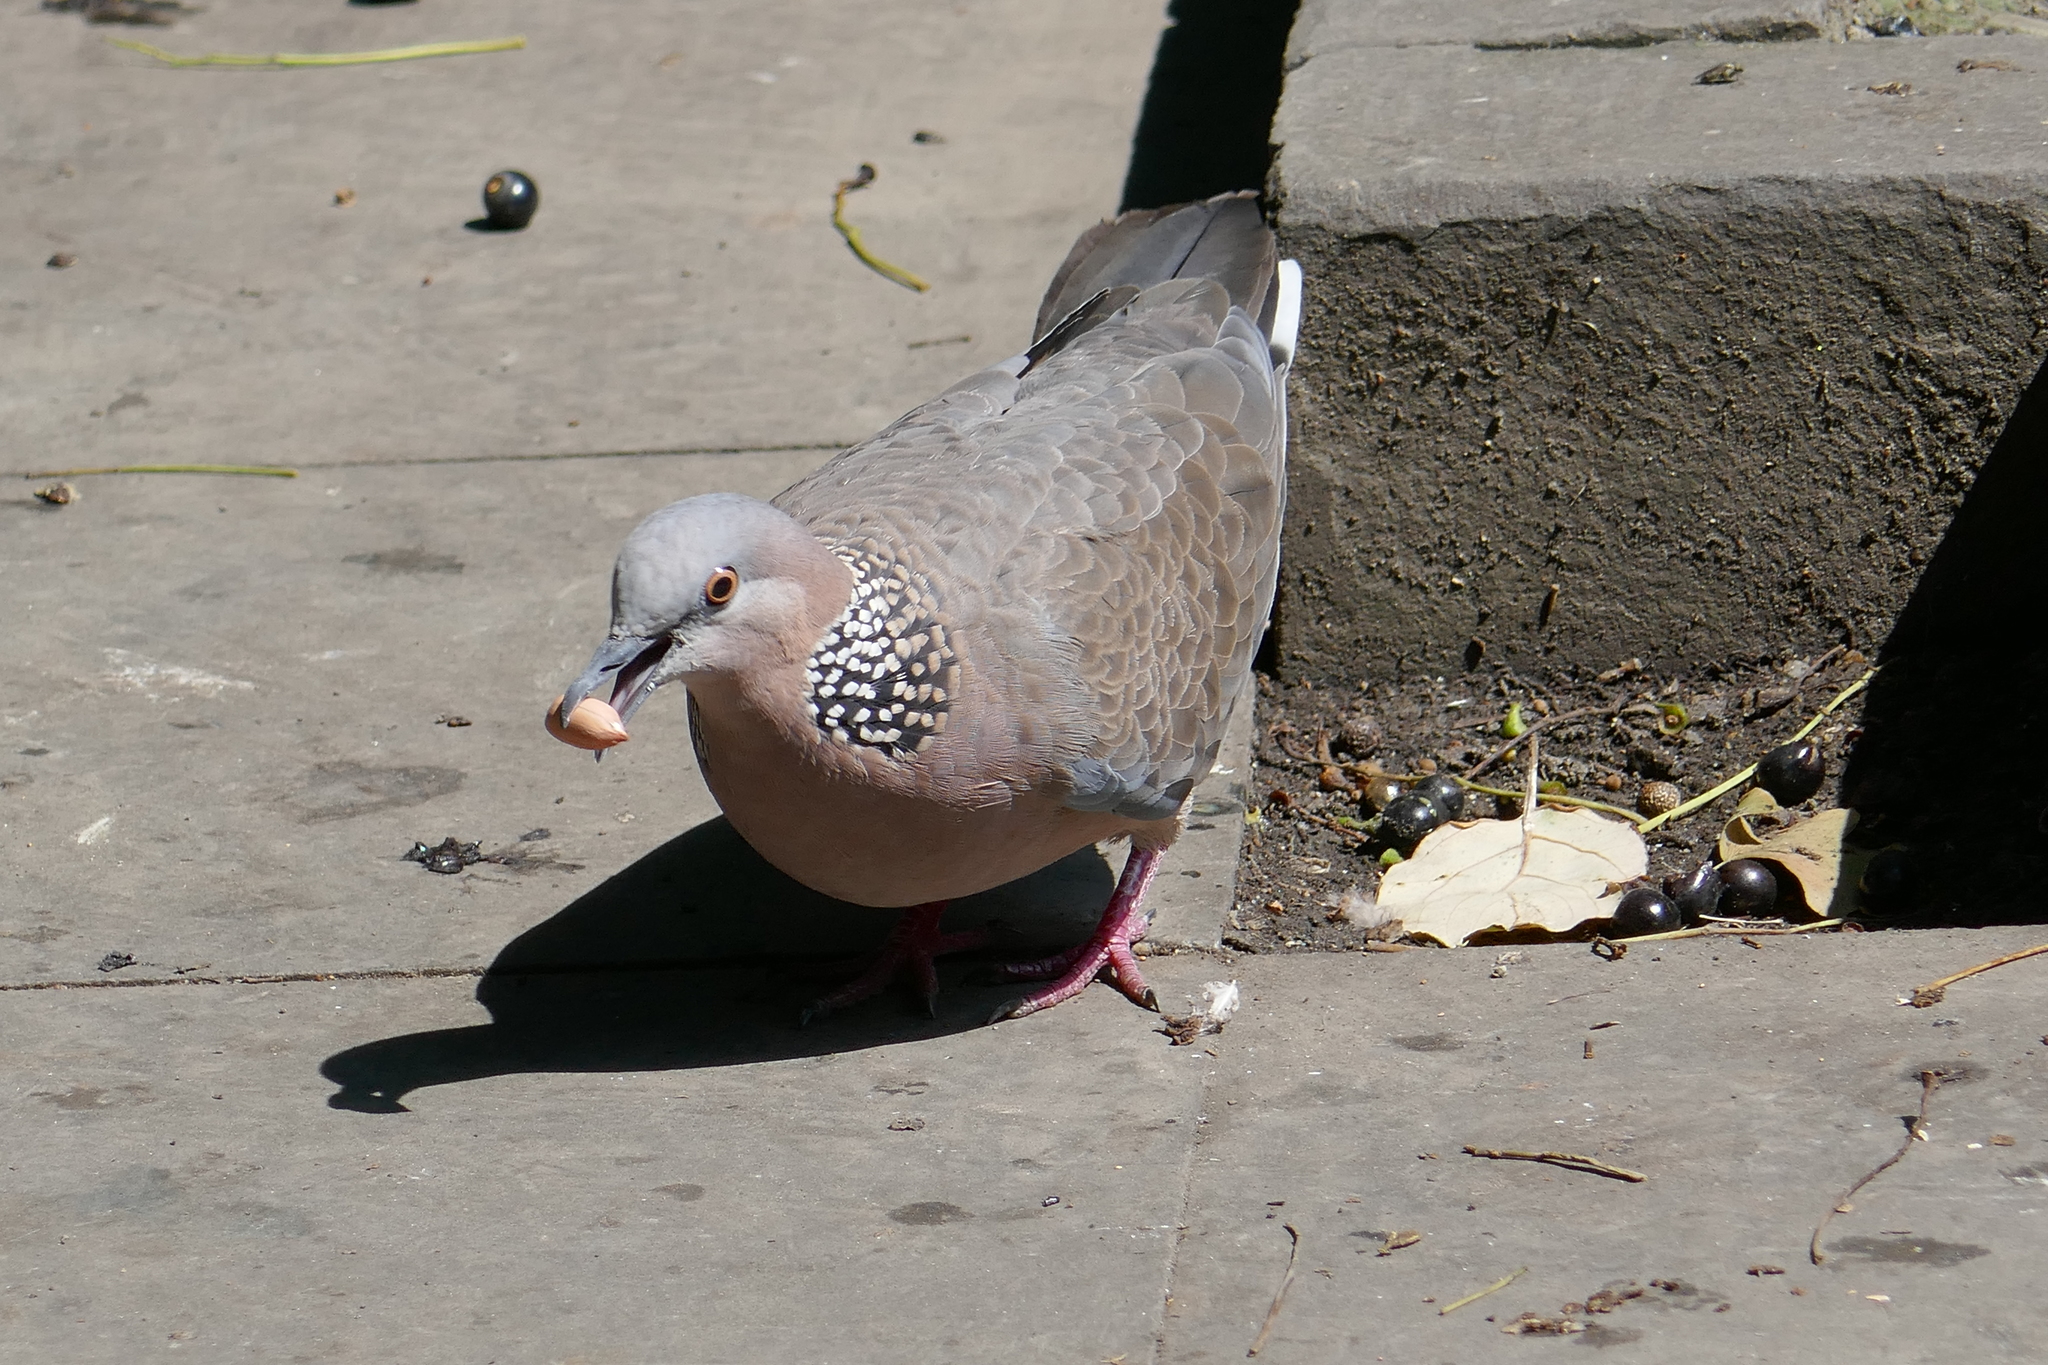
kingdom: Animalia
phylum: Chordata
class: Aves
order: Columbiformes
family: Columbidae
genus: Spilopelia
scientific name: Spilopelia chinensis
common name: Spotted dove
